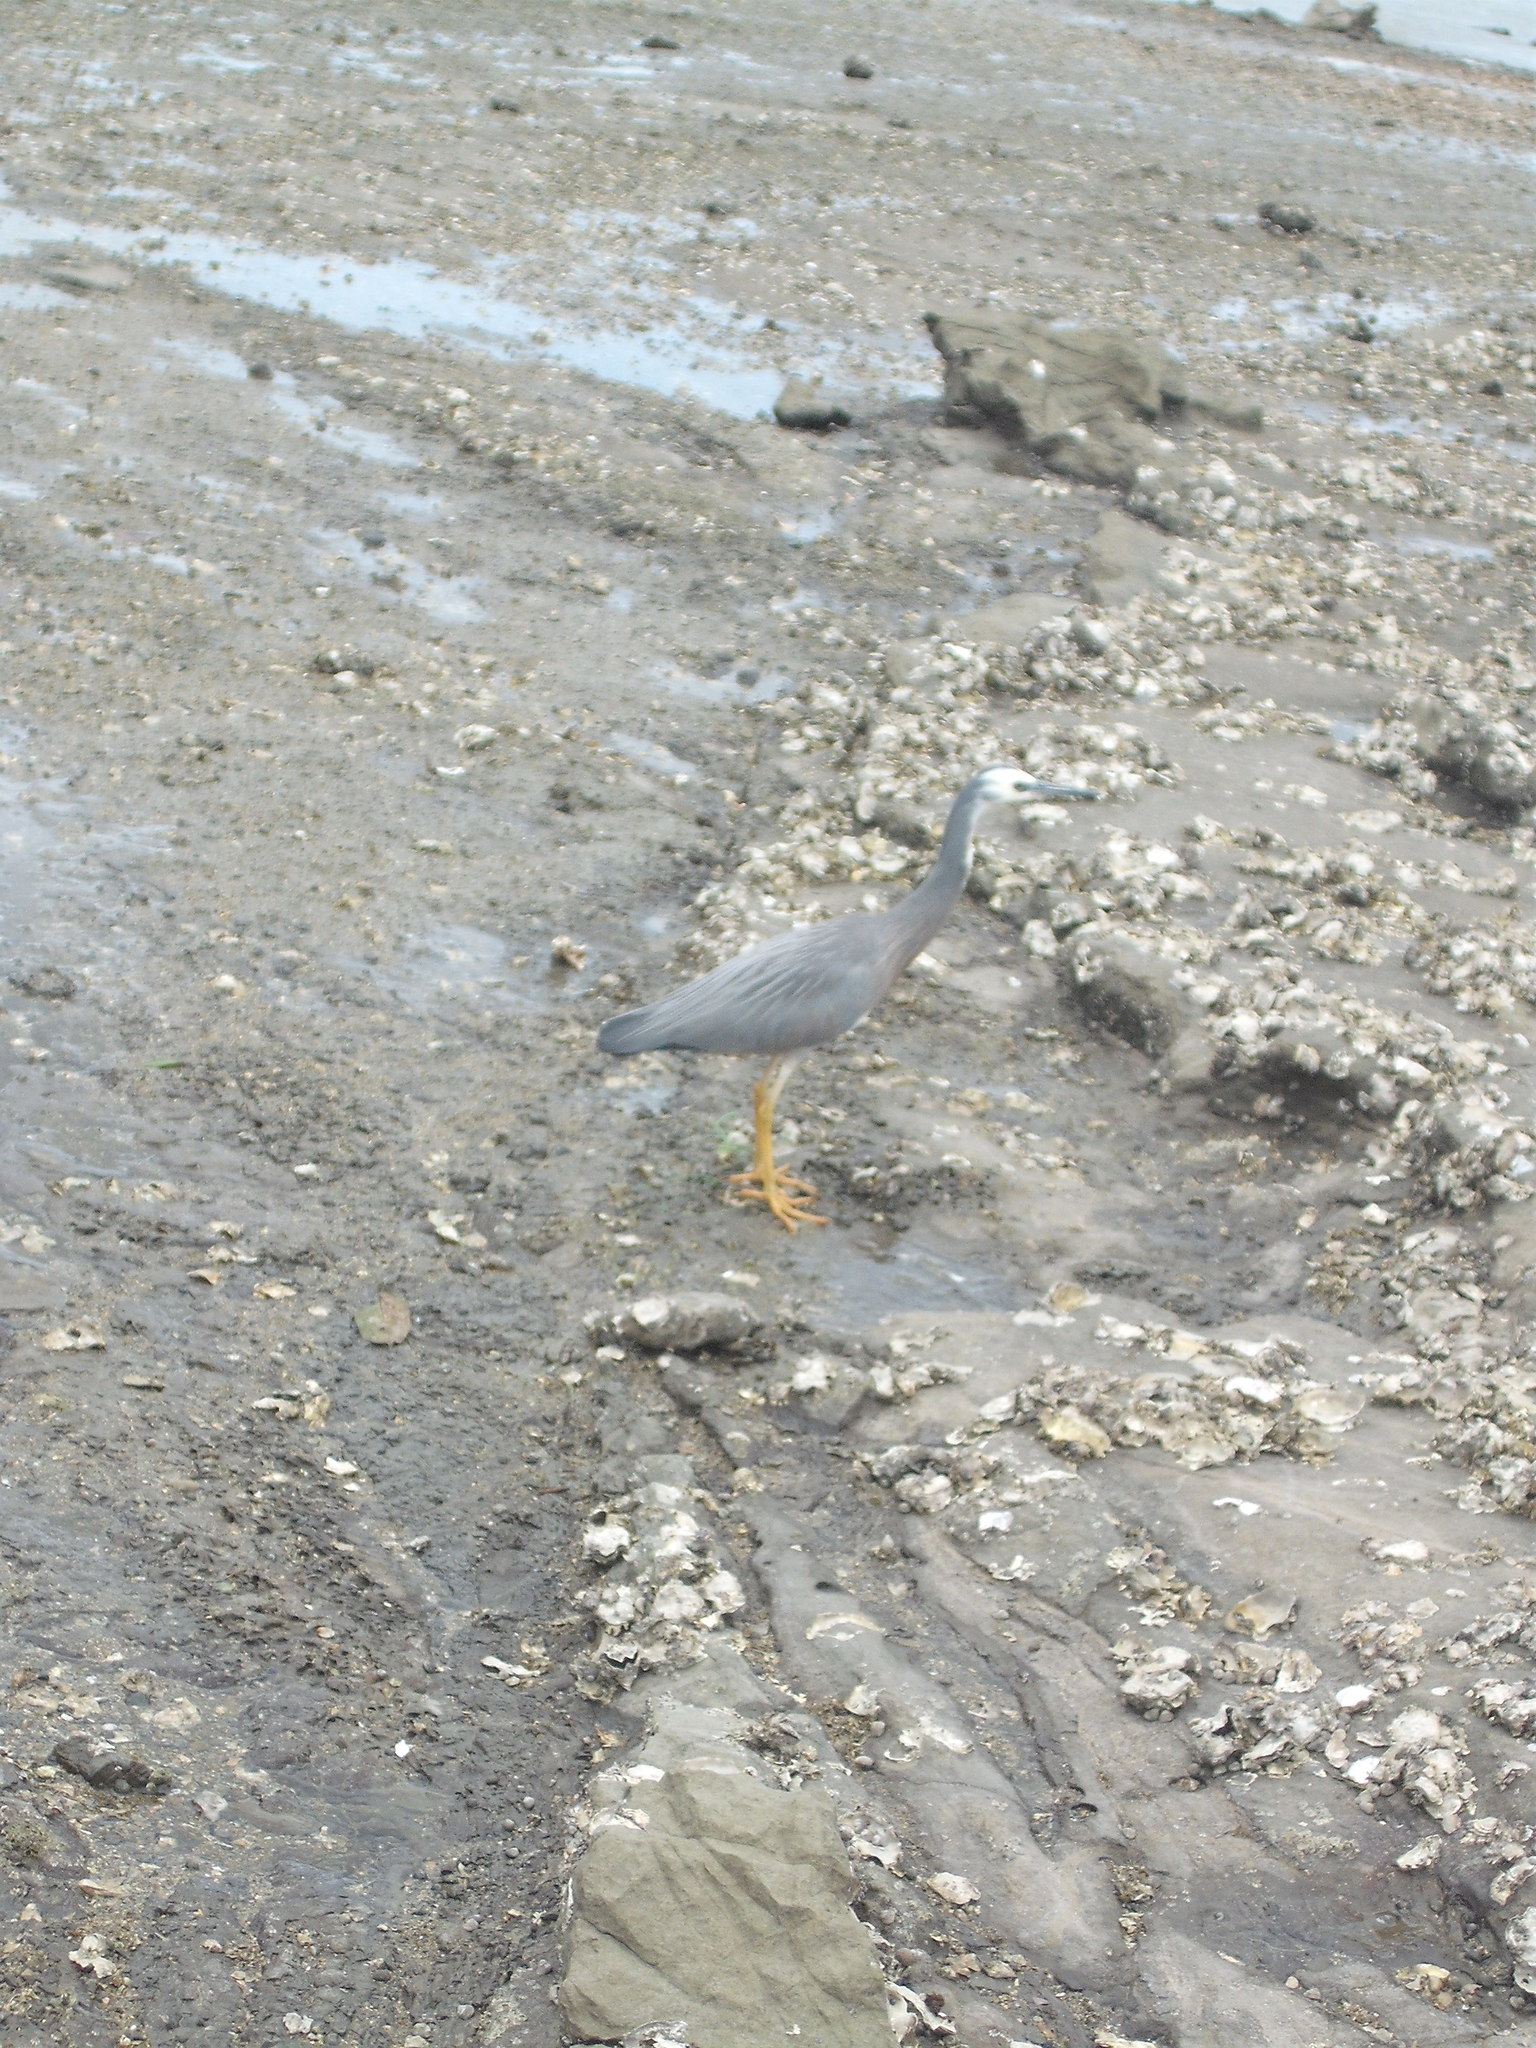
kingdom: Animalia
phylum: Chordata
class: Aves
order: Pelecaniformes
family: Ardeidae
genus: Egretta
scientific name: Egretta novaehollandiae
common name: White-faced heron
